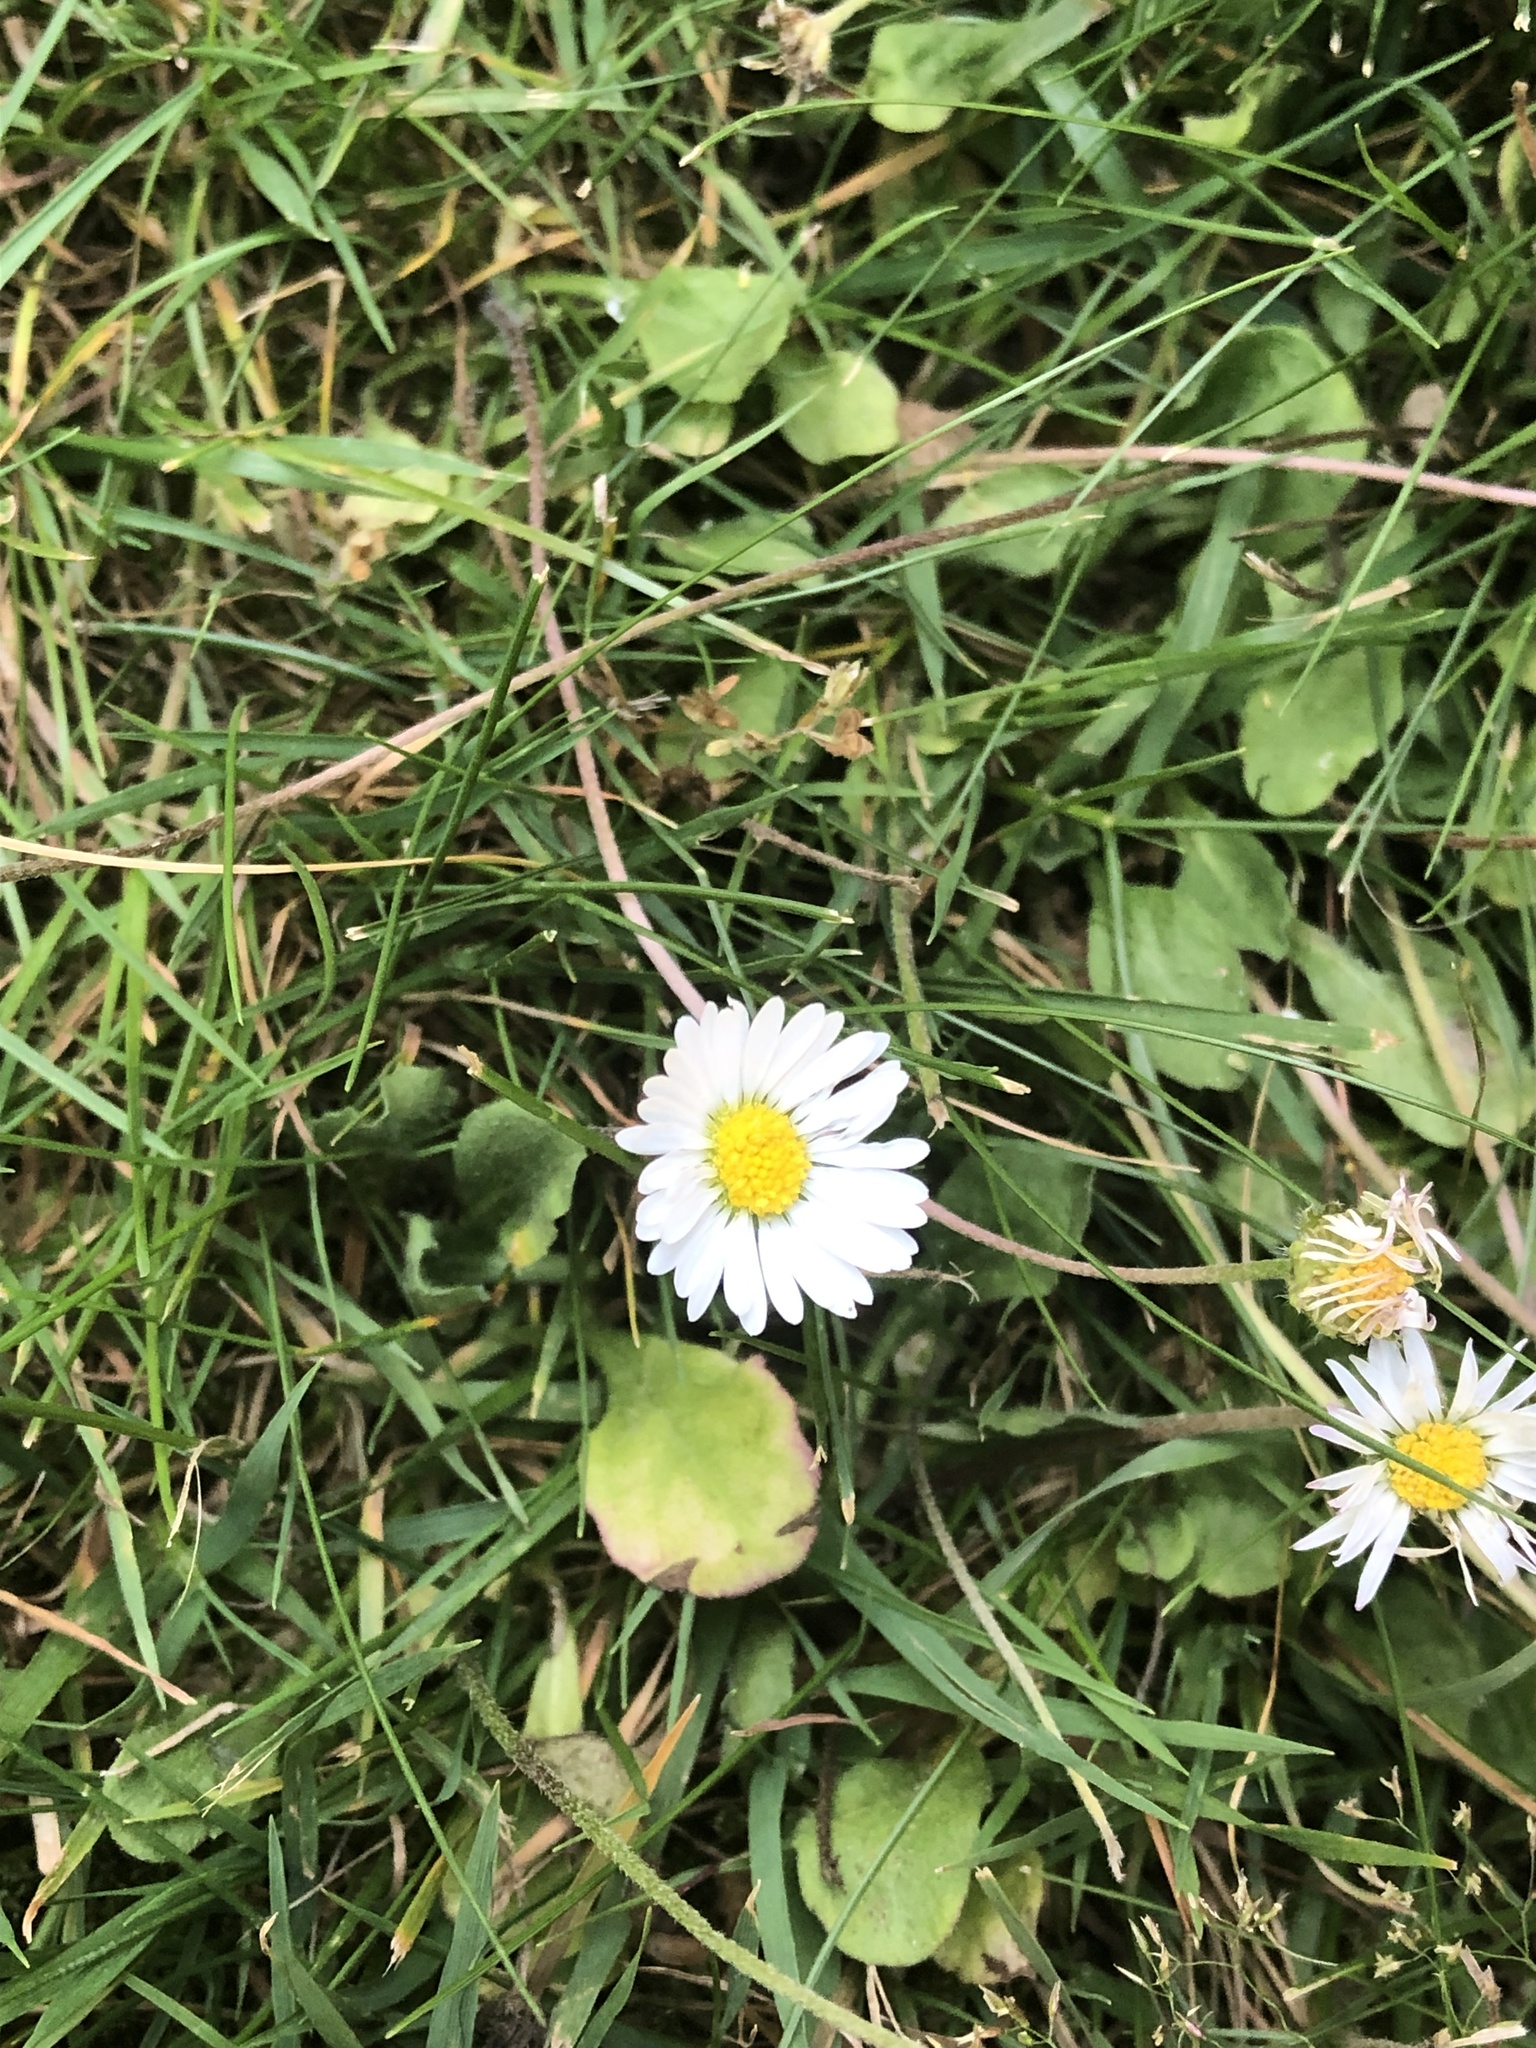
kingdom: Plantae
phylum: Tracheophyta
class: Magnoliopsida
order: Asterales
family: Asteraceae
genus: Bellis
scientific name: Bellis perennis
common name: Lawndaisy
